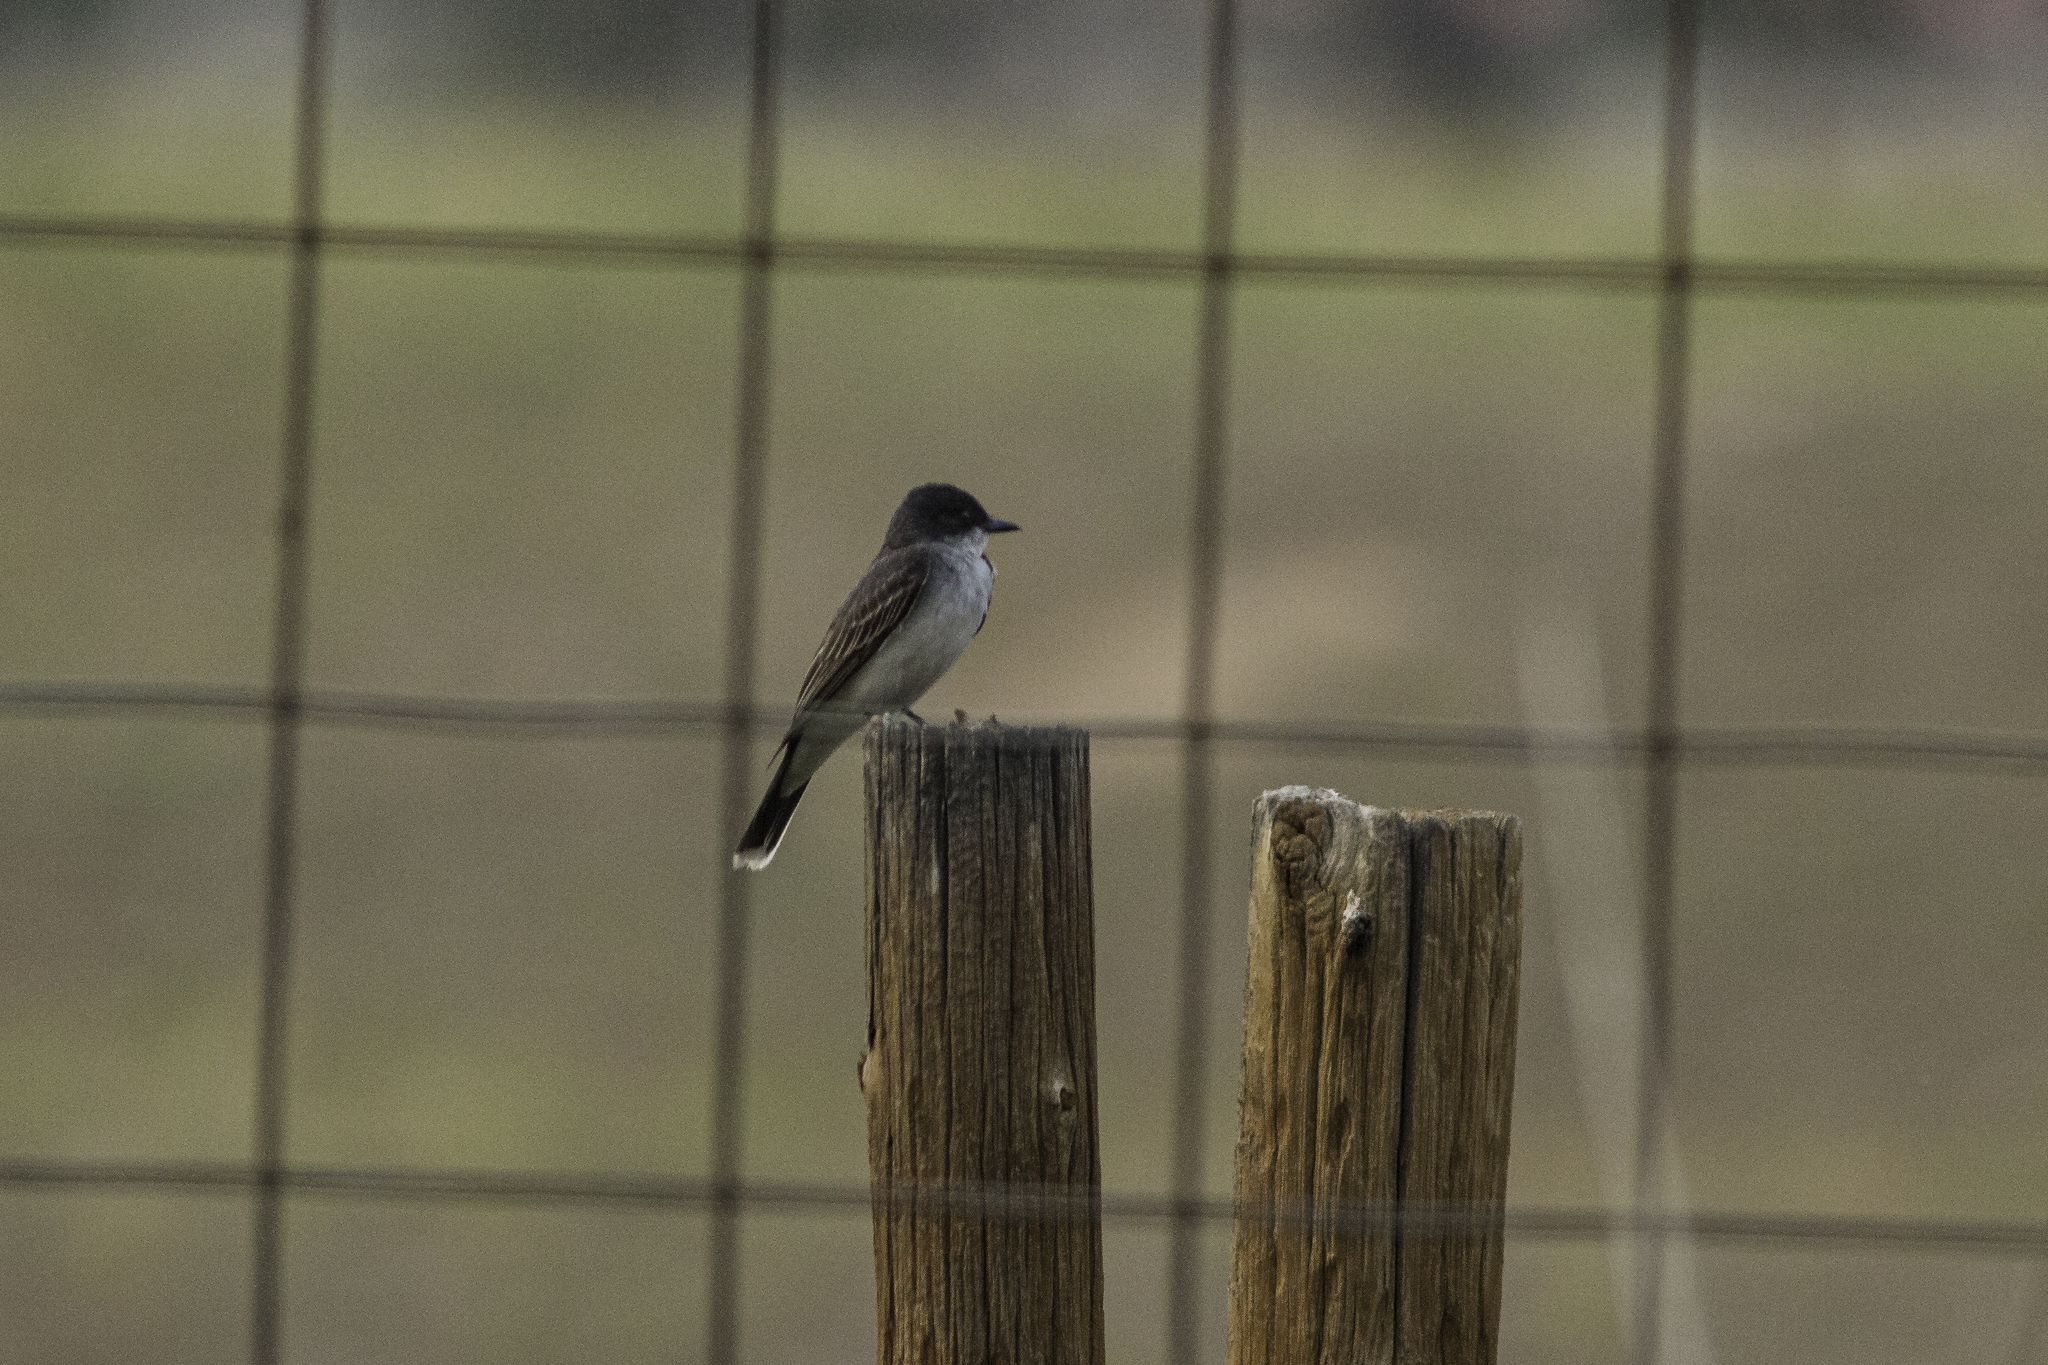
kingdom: Animalia
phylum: Chordata
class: Aves
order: Passeriformes
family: Tyrannidae
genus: Tyrannus
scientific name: Tyrannus tyrannus
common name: Eastern kingbird
